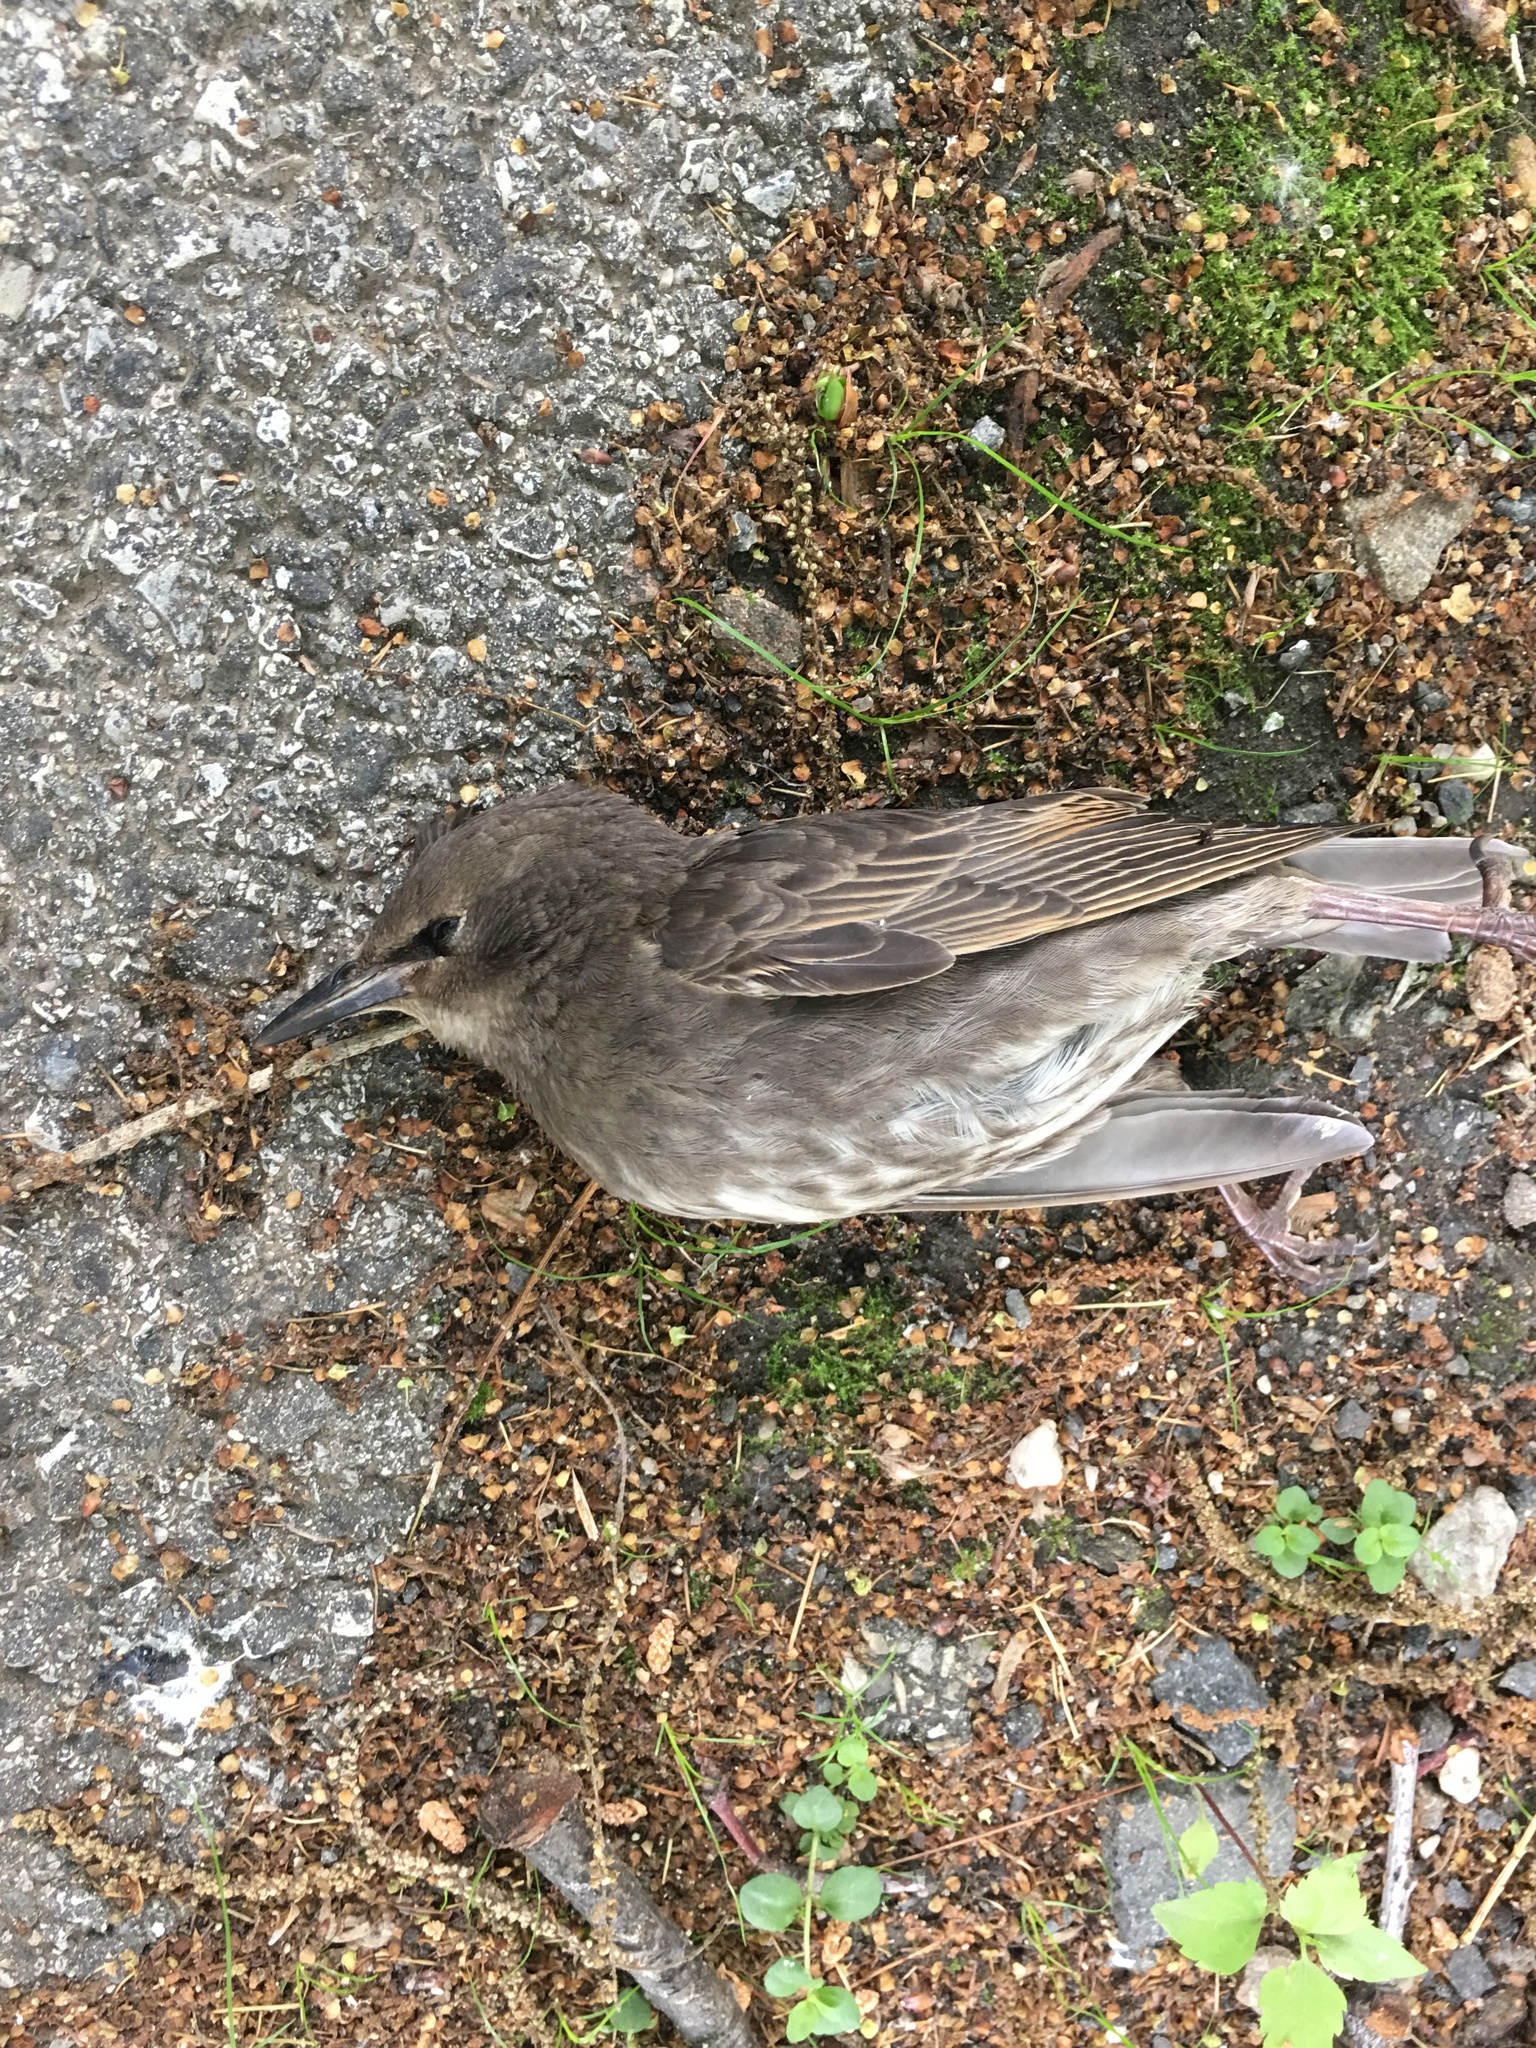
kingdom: Animalia
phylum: Chordata
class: Aves
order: Passeriformes
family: Sturnidae
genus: Sturnus
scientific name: Sturnus vulgaris
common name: Common starling
